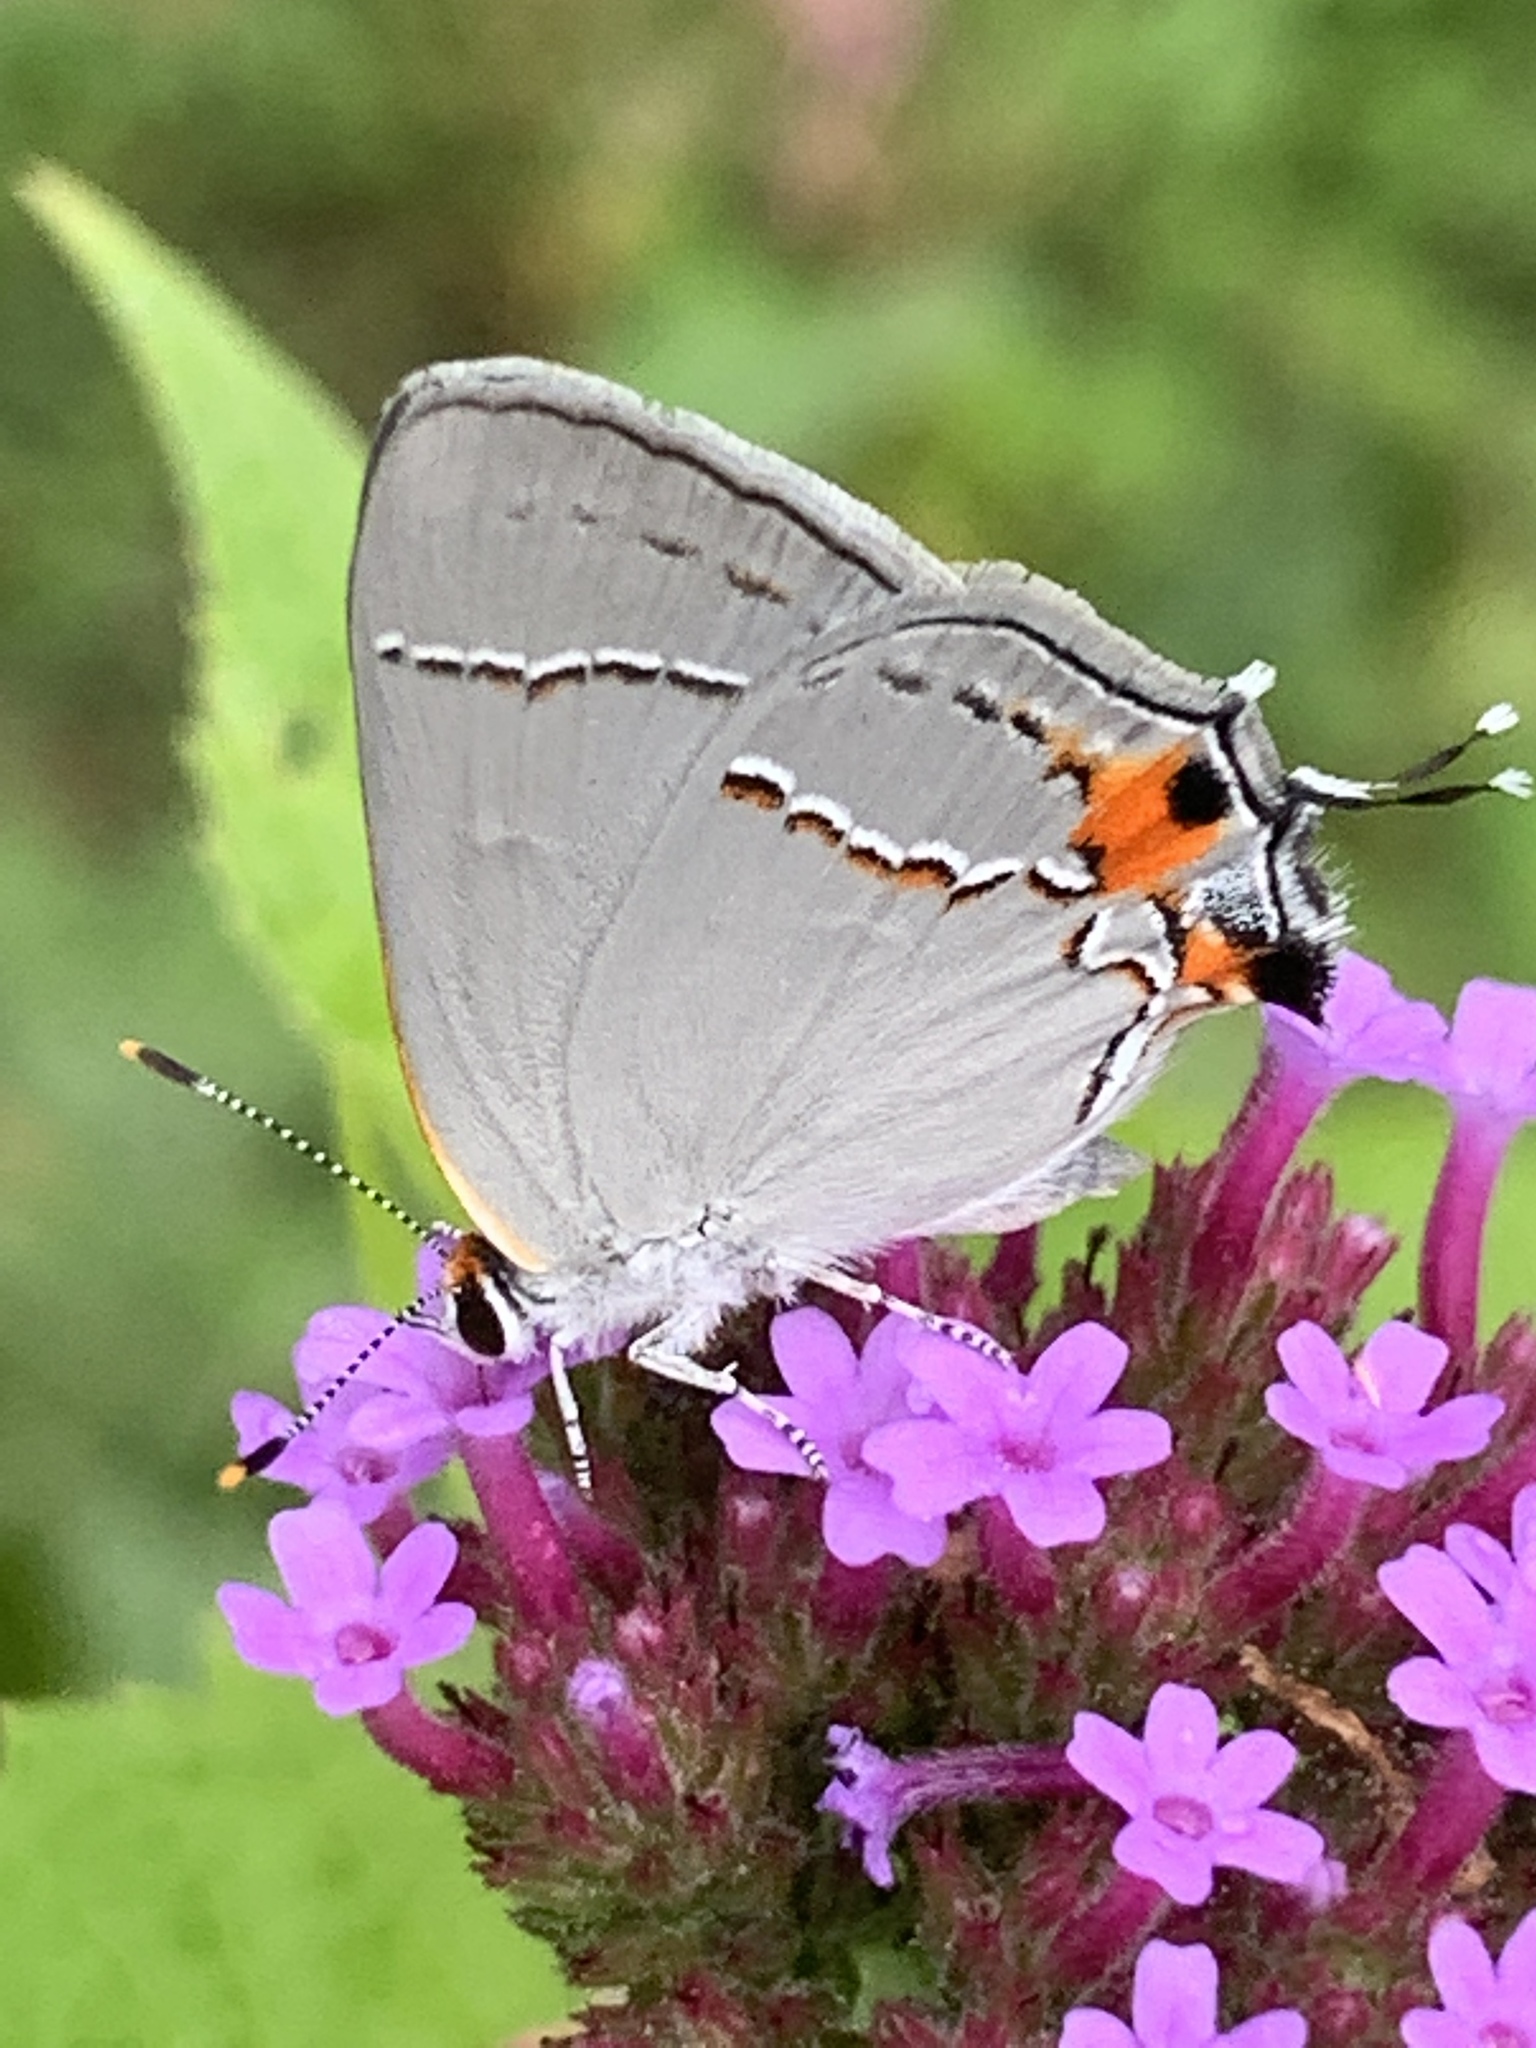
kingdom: Animalia
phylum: Arthropoda
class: Insecta
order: Lepidoptera
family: Lycaenidae
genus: Strymon
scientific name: Strymon melinus
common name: Gray hairstreak
